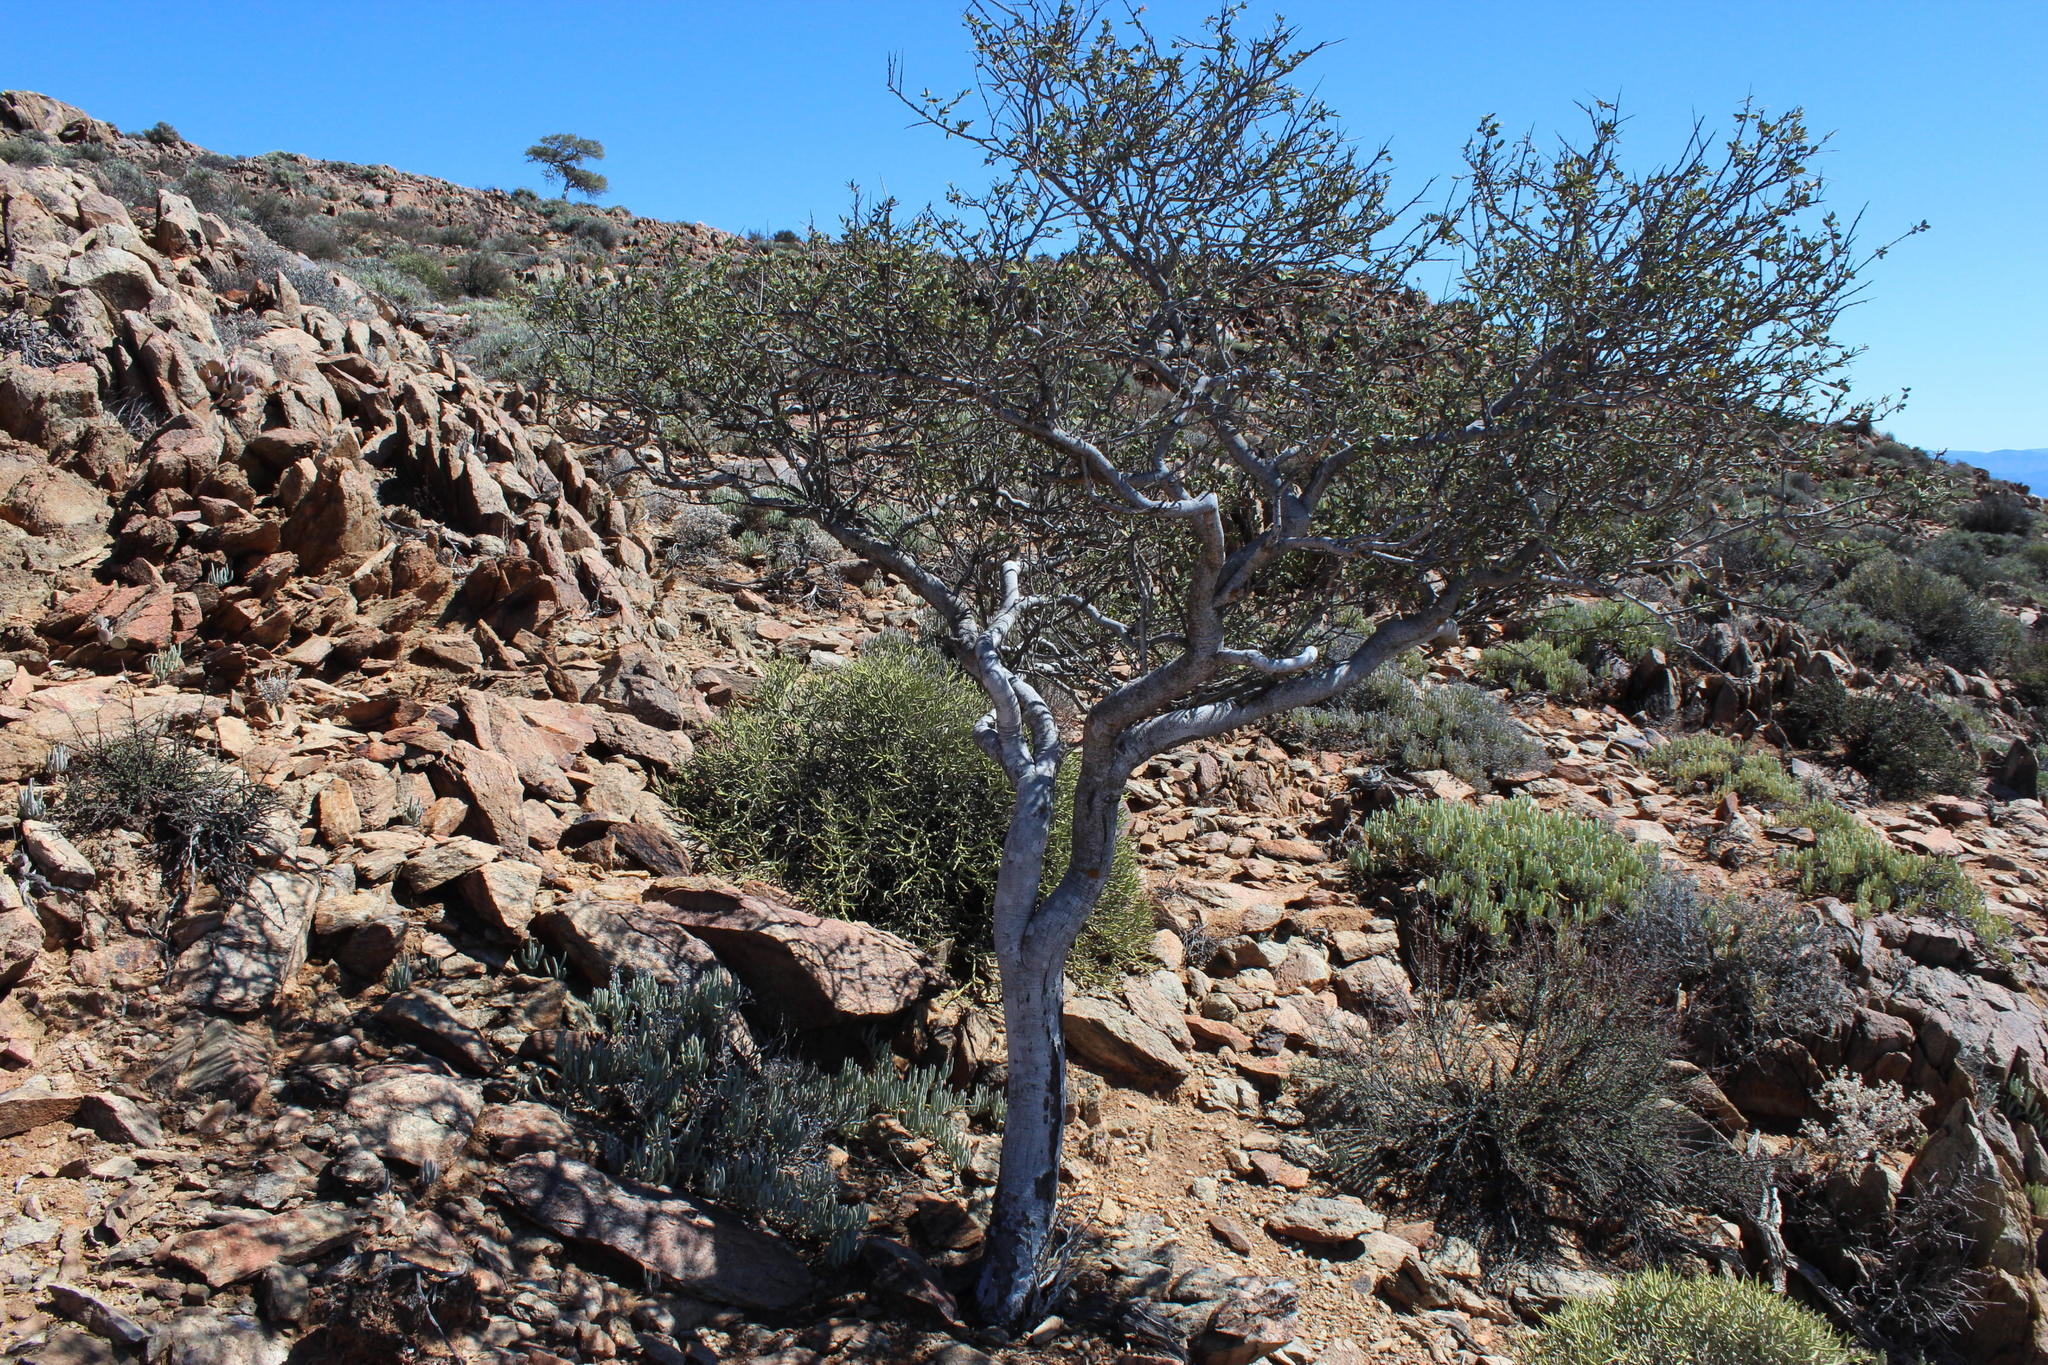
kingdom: Plantae
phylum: Tracheophyta
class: Magnoliopsida
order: Brassicales
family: Capparaceae
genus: Boscia
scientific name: Boscia albitrunca
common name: Caper bush
